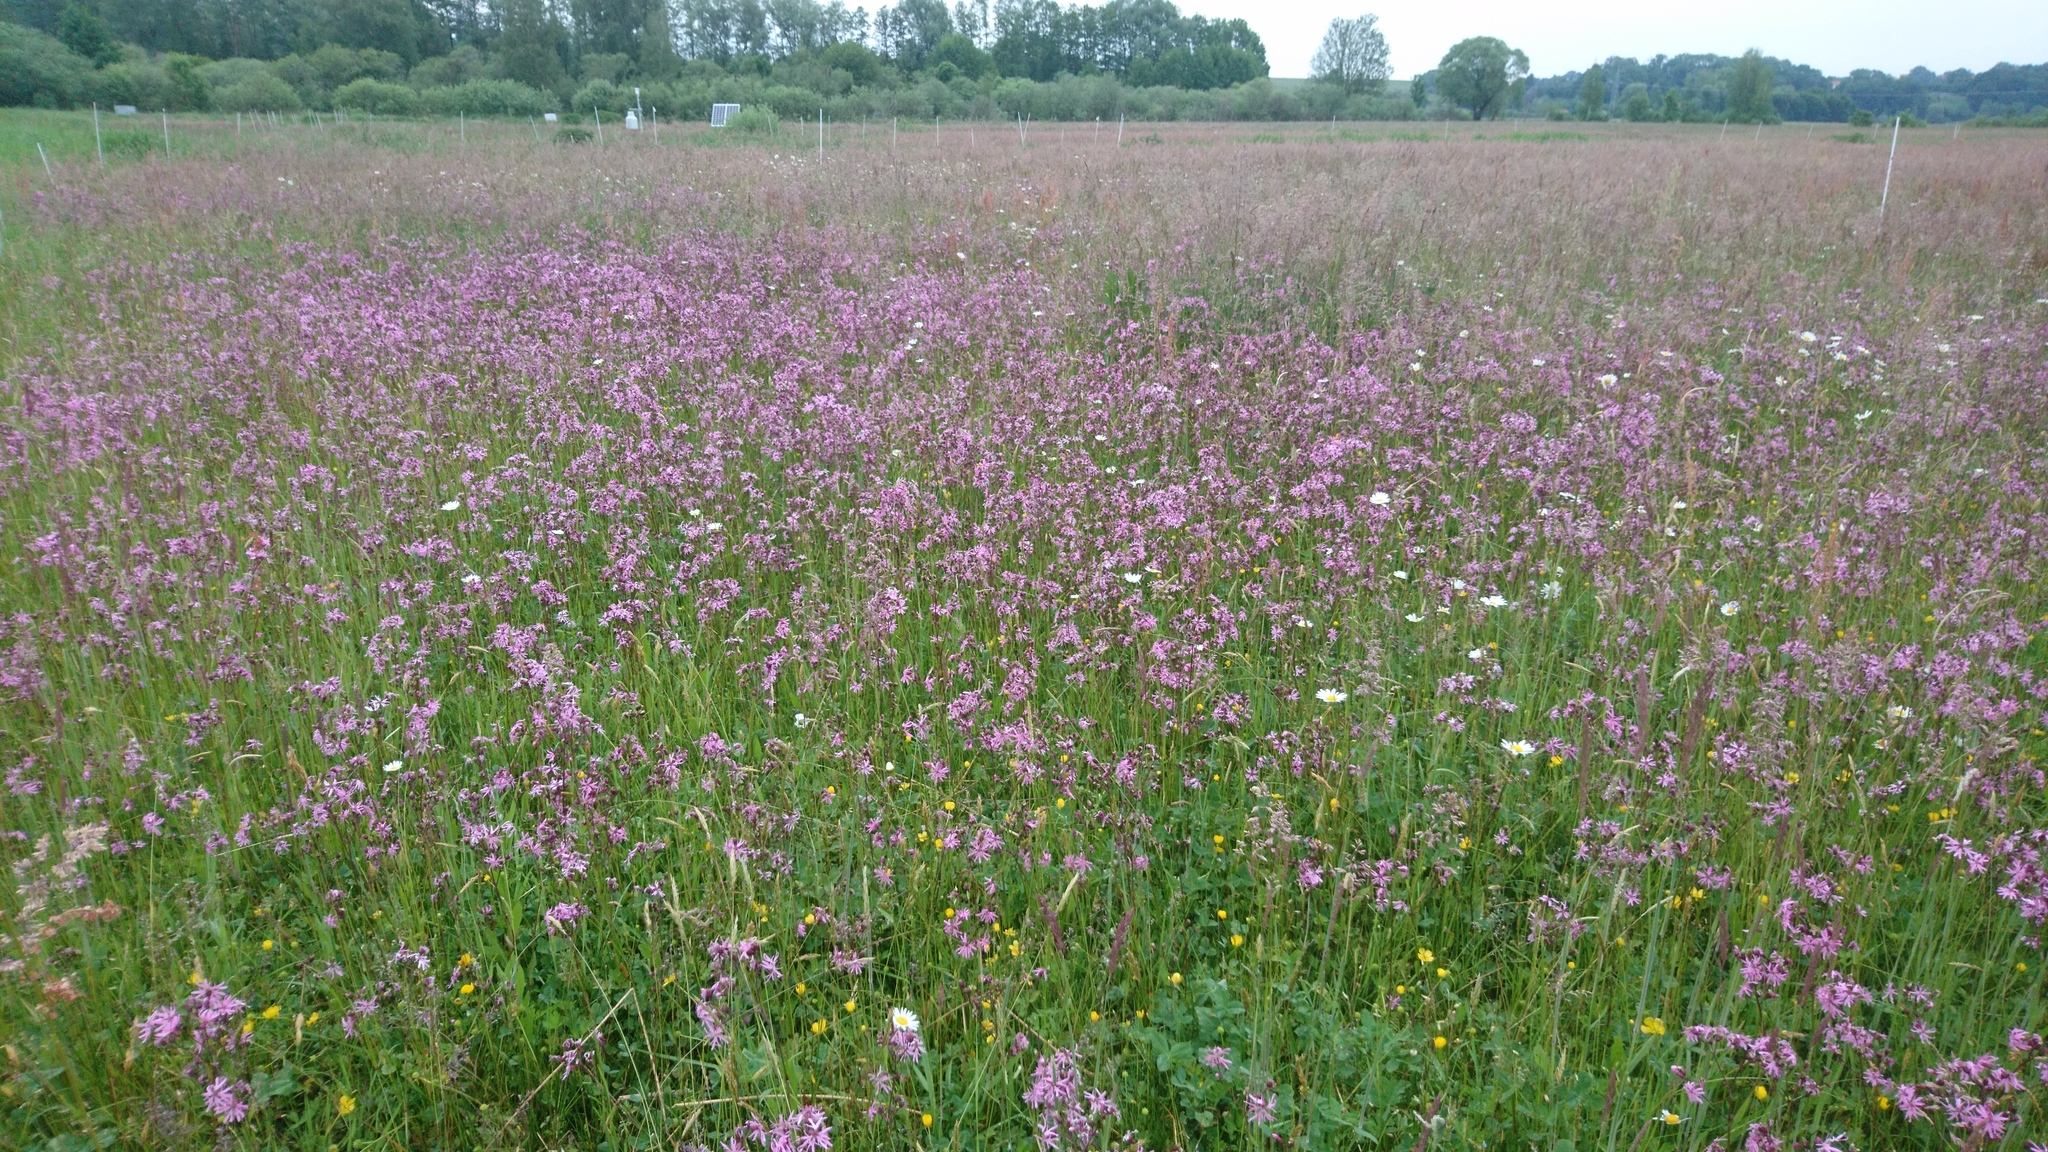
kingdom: Plantae
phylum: Tracheophyta
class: Magnoliopsida
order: Caryophyllales
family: Caryophyllaceae
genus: Silene
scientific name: Silene flos-cuculi
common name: Ragged-robin
